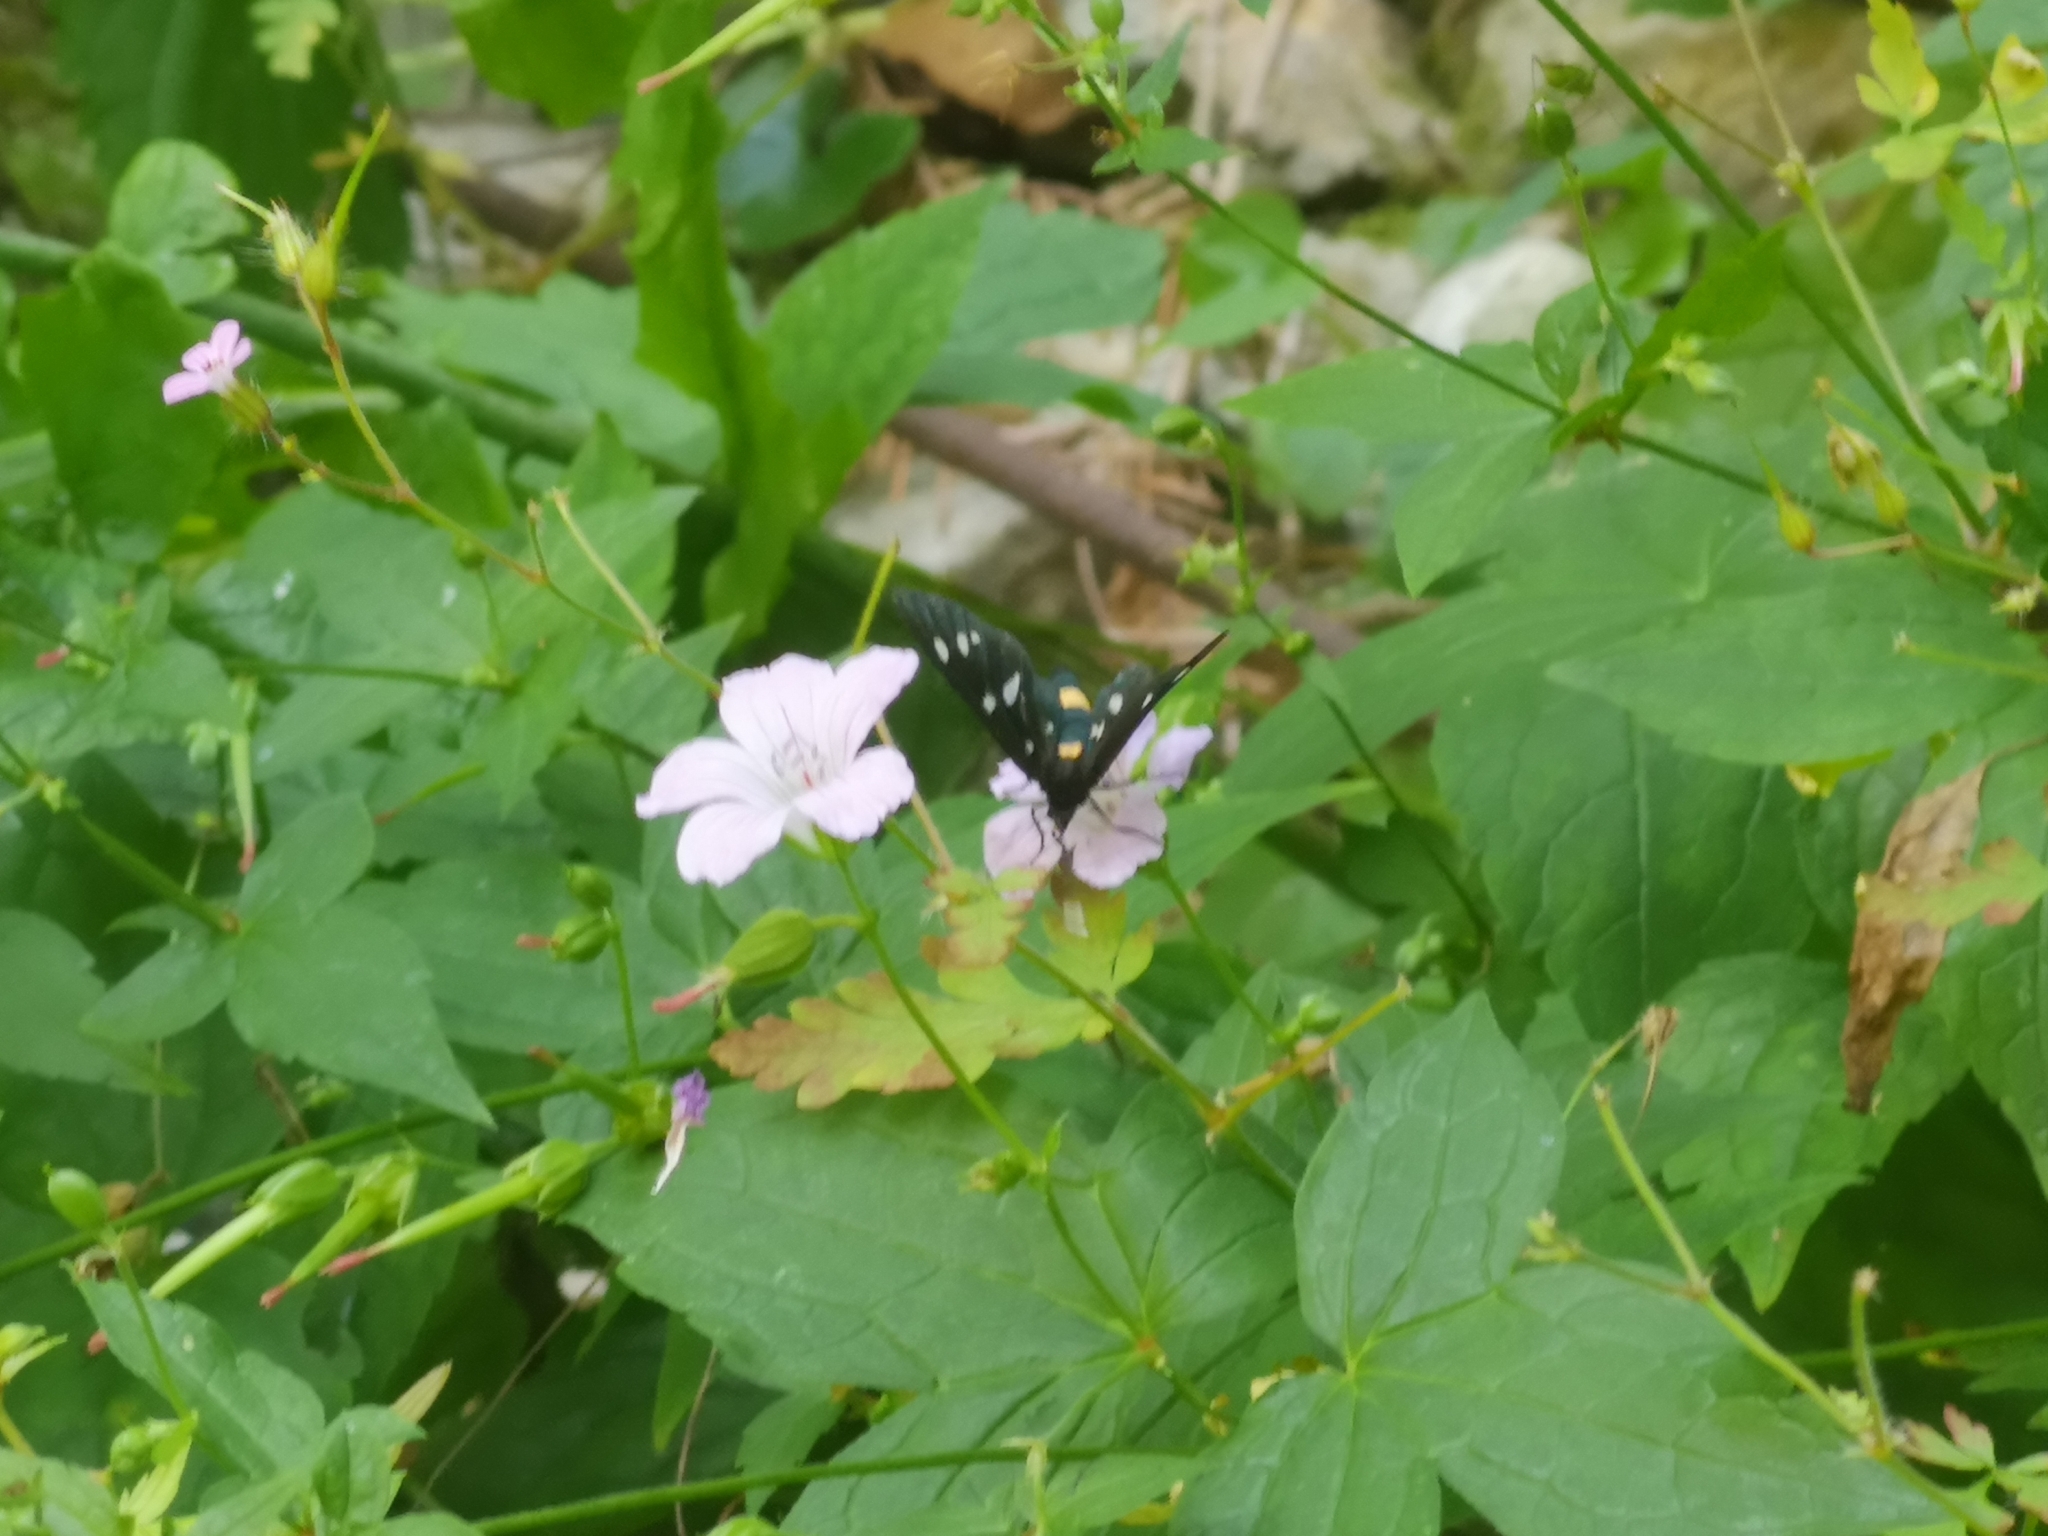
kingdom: Animalia
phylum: Arthropoda
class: Insecta
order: Lepidoptera
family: Erebidae
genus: Amata
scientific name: Amata phegea
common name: Nine-spotted
